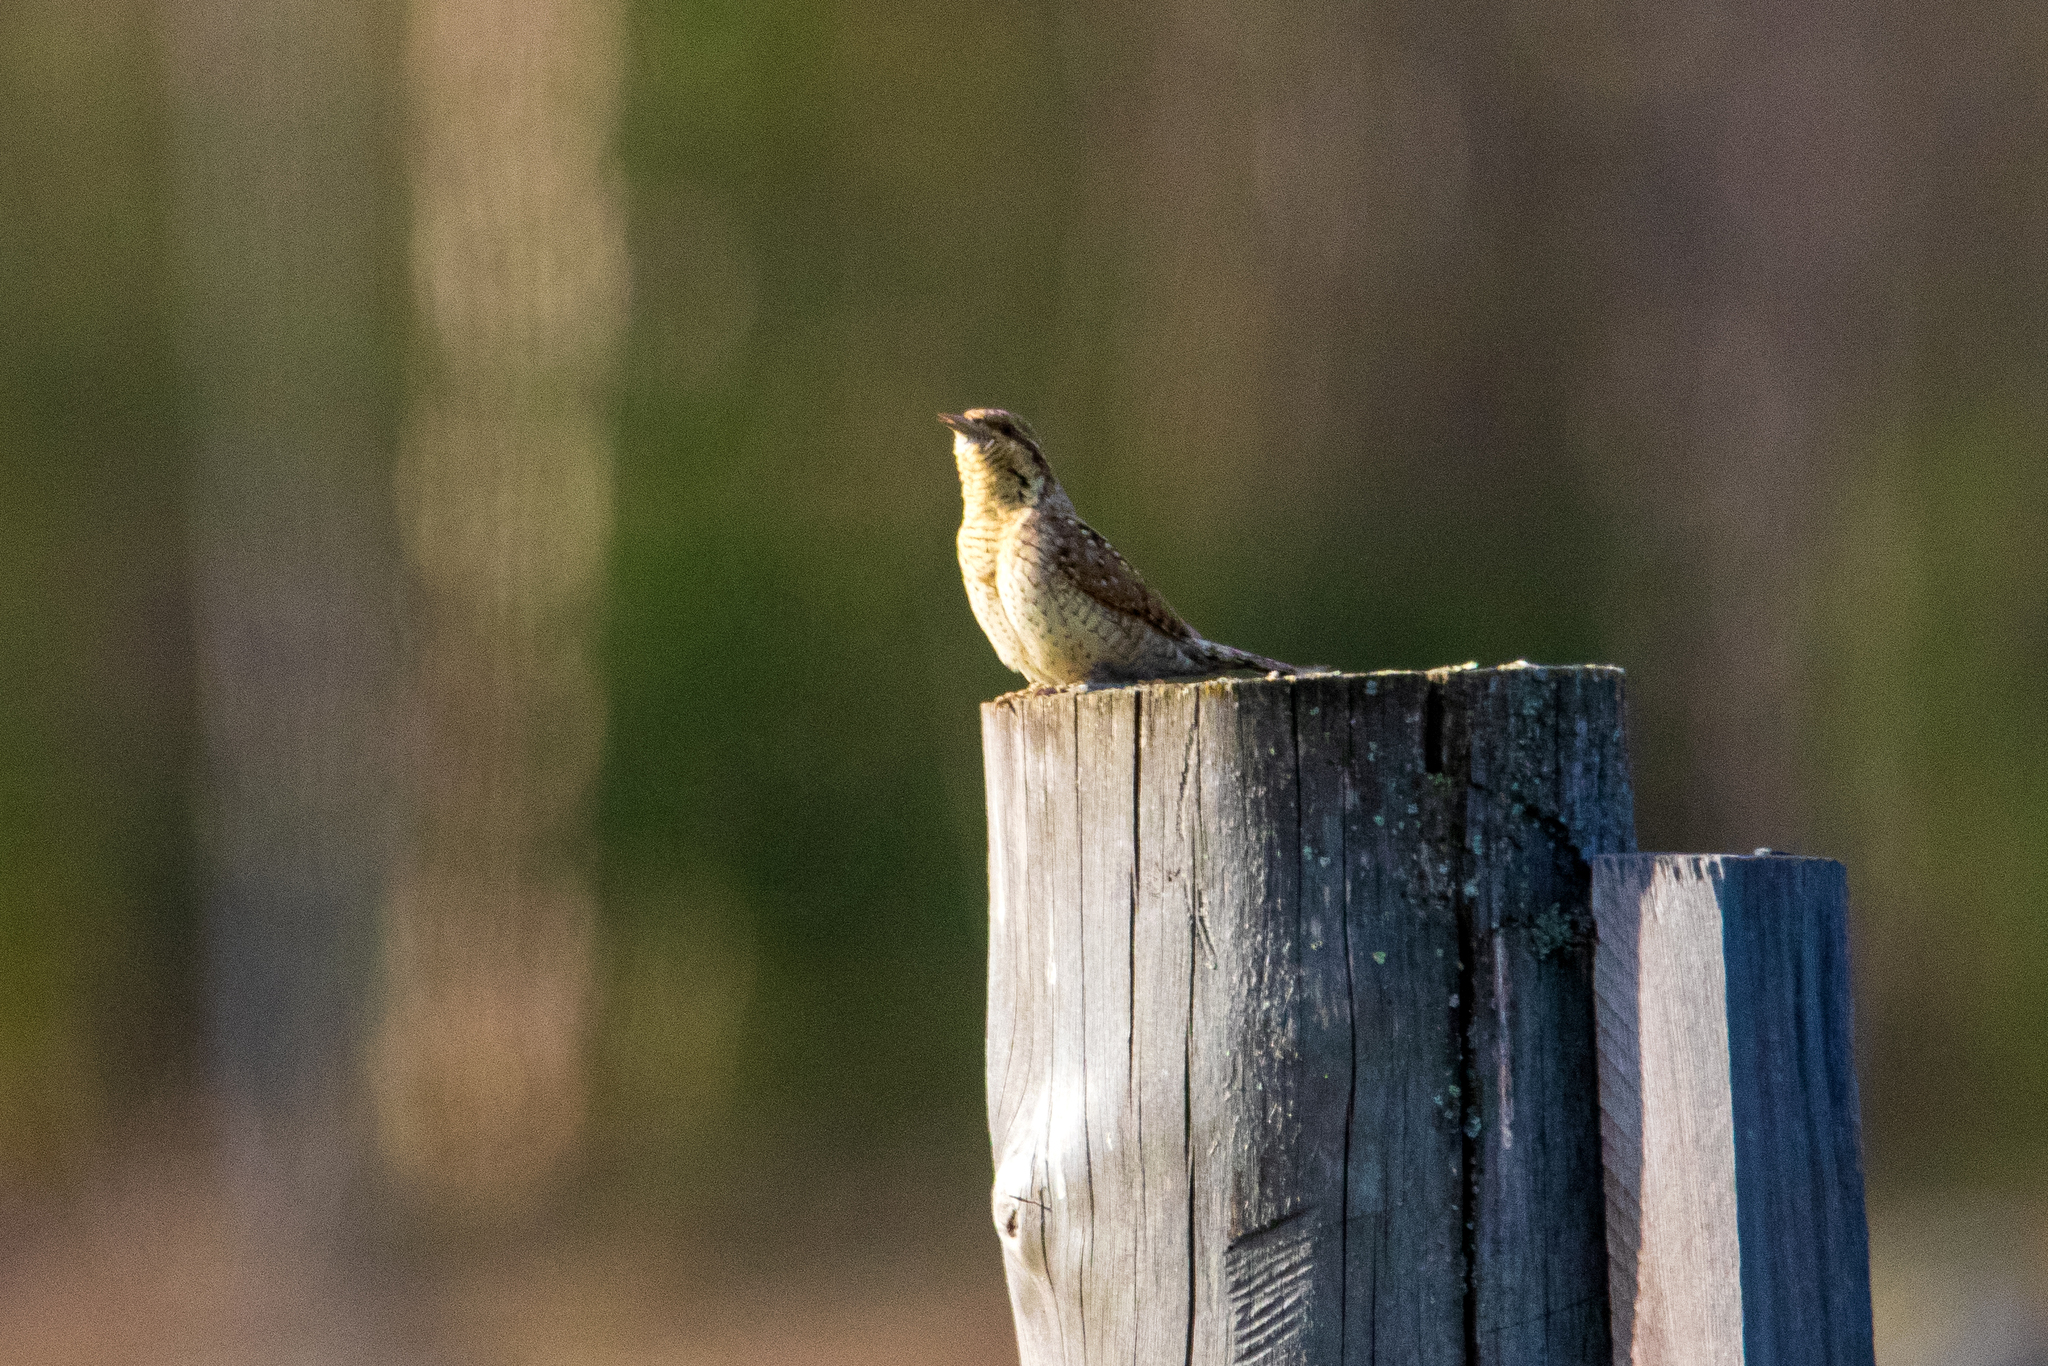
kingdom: Animalia
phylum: Chordata
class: Aves
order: Piciformes
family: Picidae
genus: Jynx
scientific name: Jynx torquilla
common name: Eurasian wryneck
